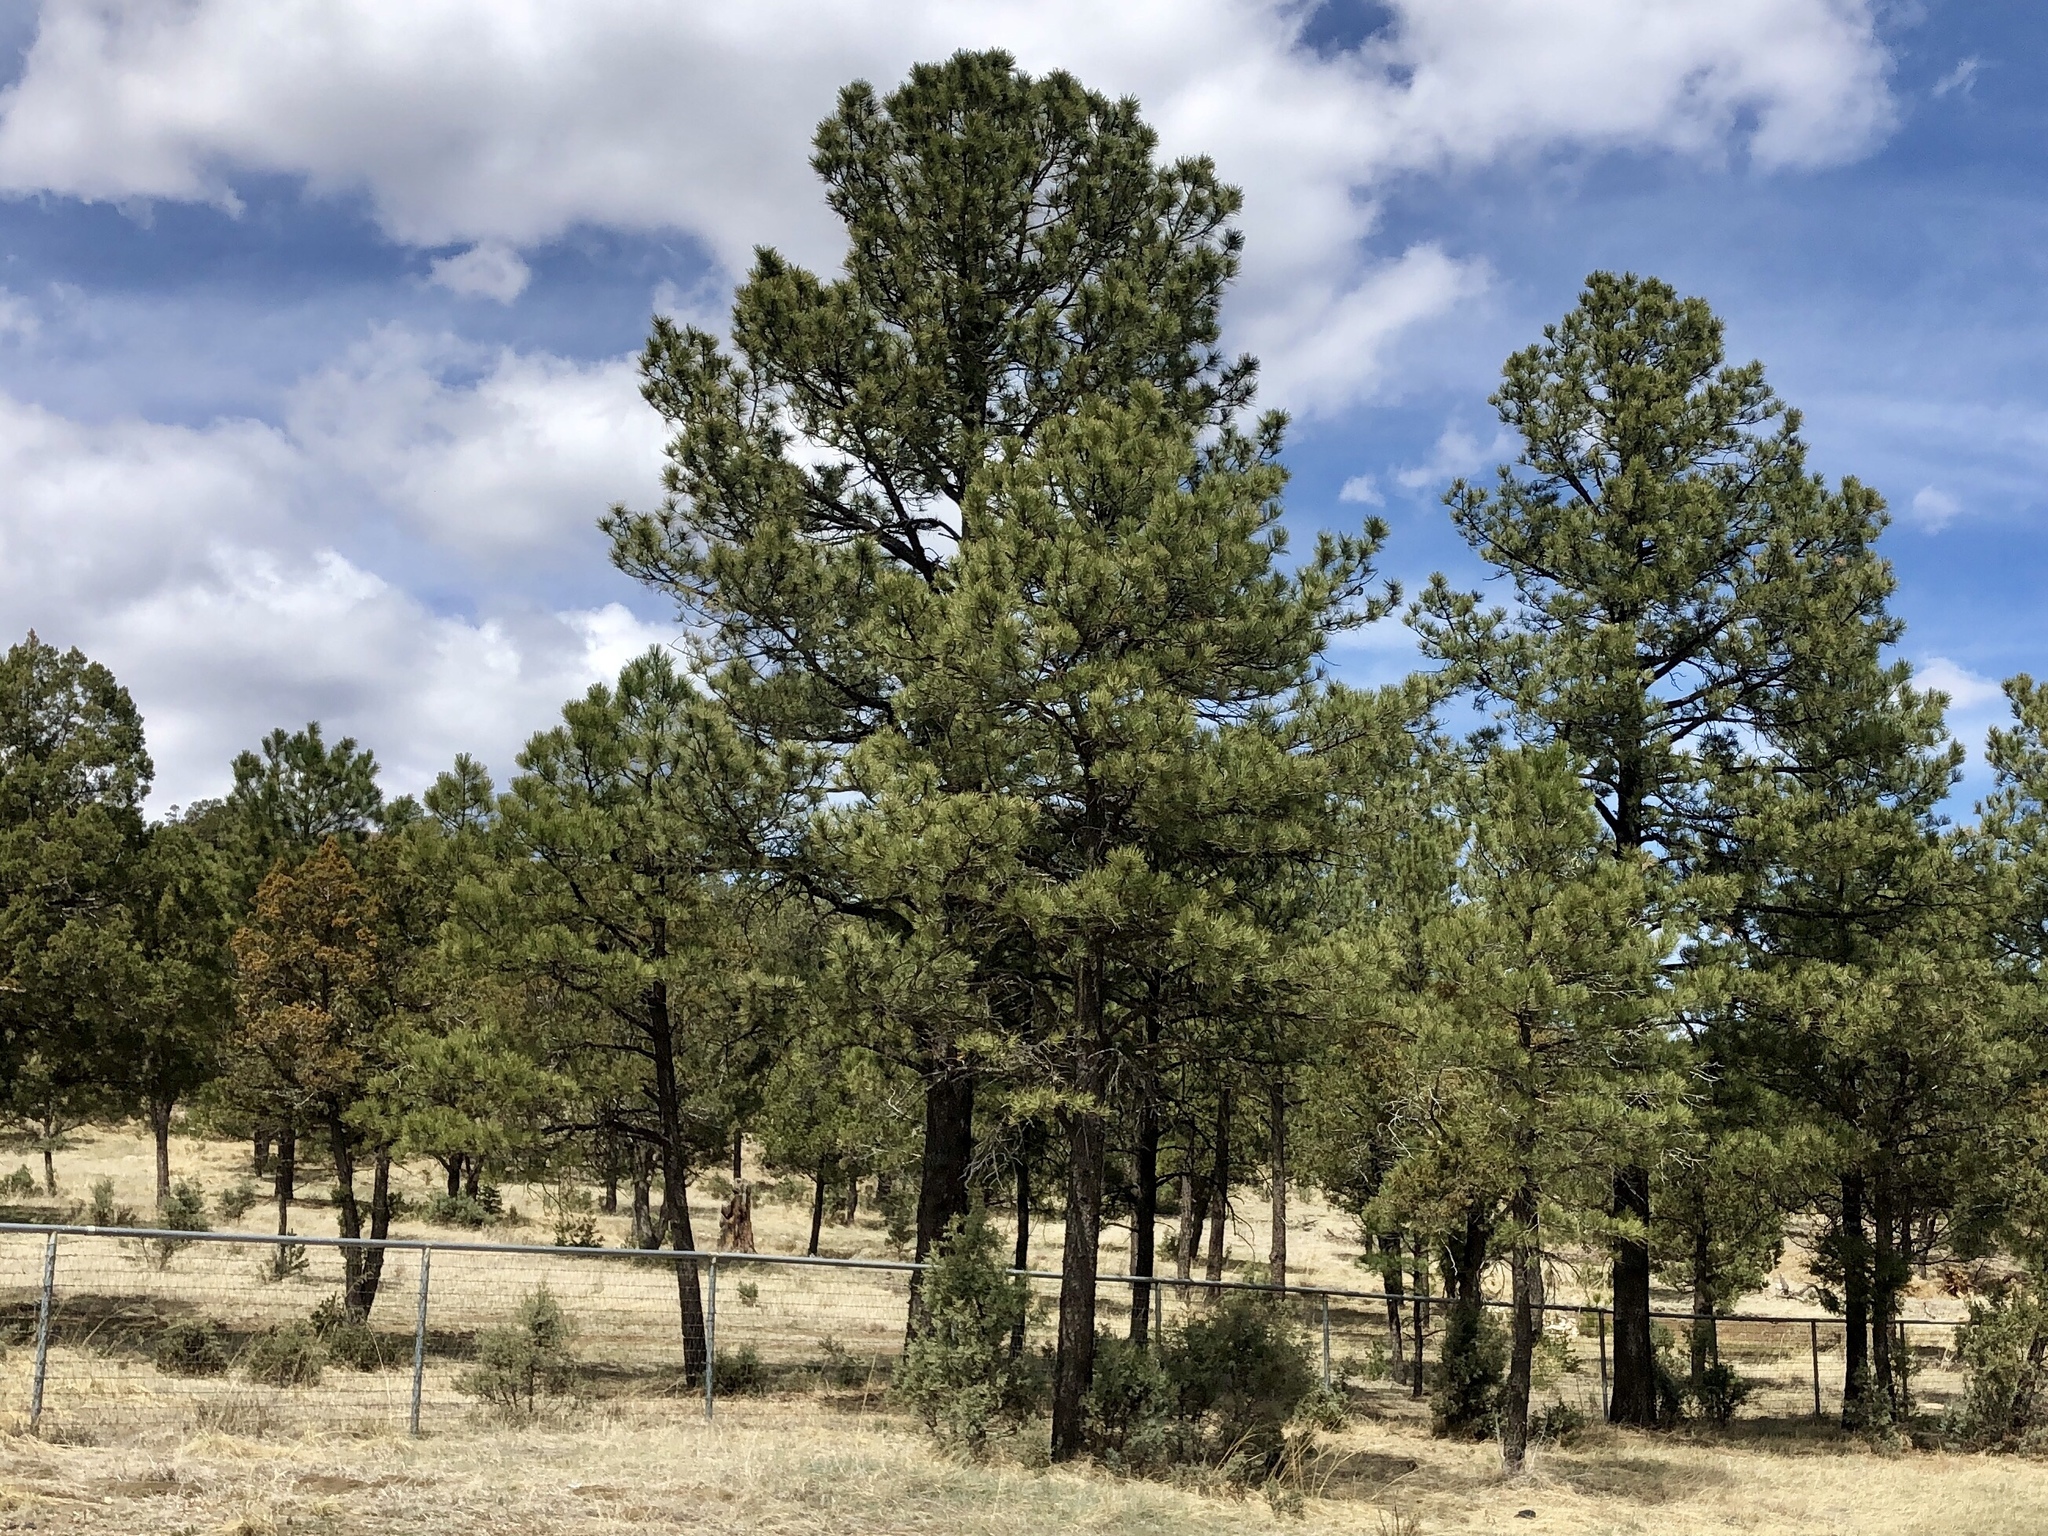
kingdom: Plantae
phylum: Tracheophyta
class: Pinopsida
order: Pinales
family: Pinaceae
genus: Pinus
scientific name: Pinus ponderosa
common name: Western yellow-pine
